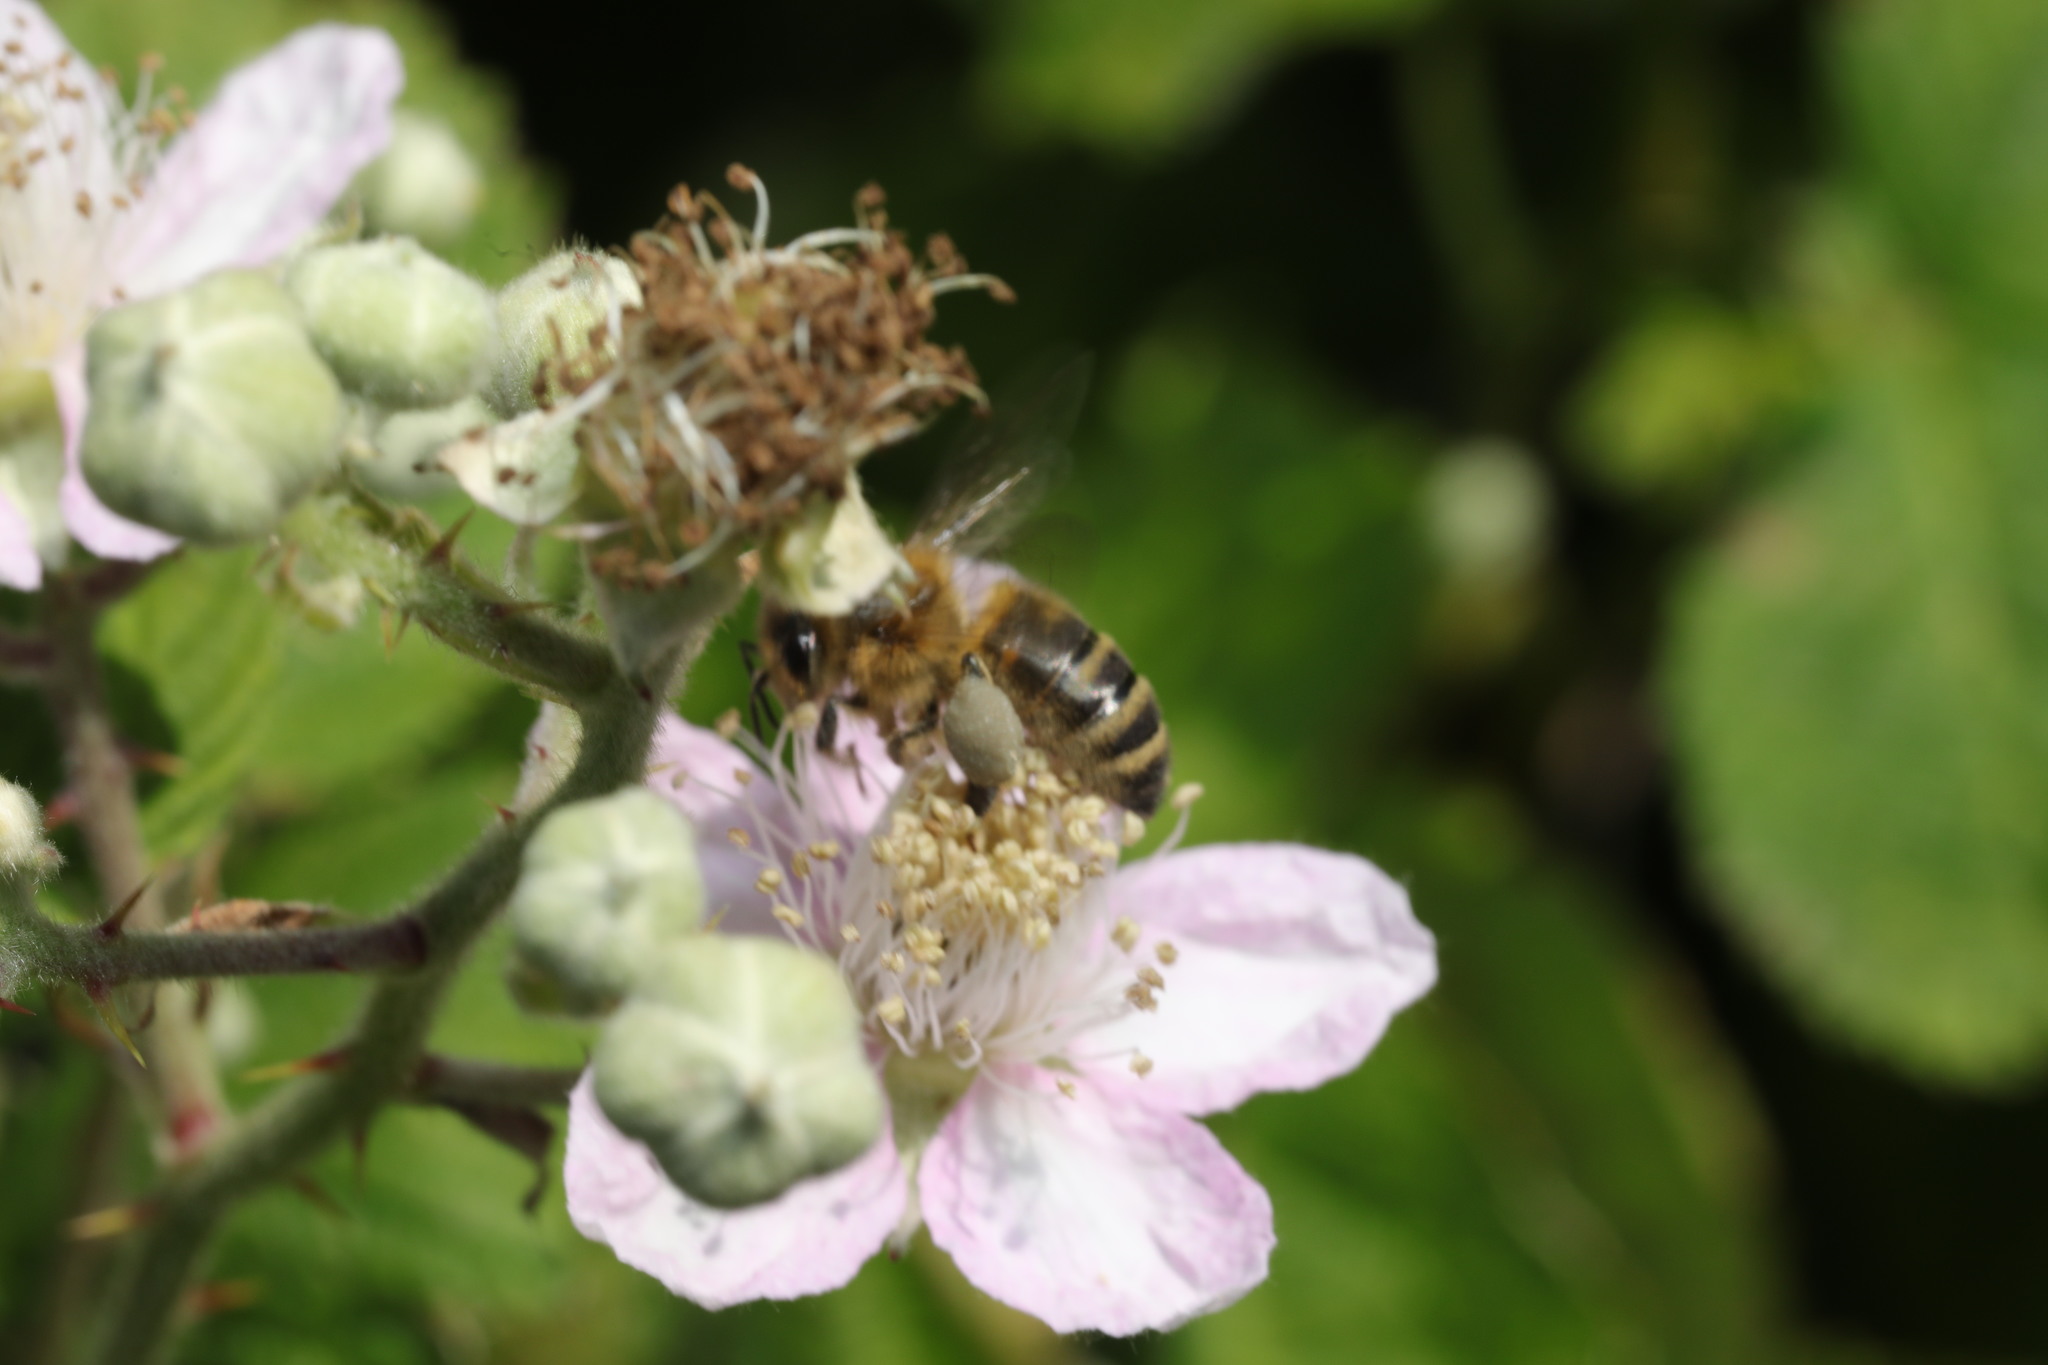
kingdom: Plantae
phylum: Tracheophyta
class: Magnoliopsida
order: Rosales
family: Rosaceae
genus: Rubus
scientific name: Rubus armeniacus
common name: Himalayan blackberry
